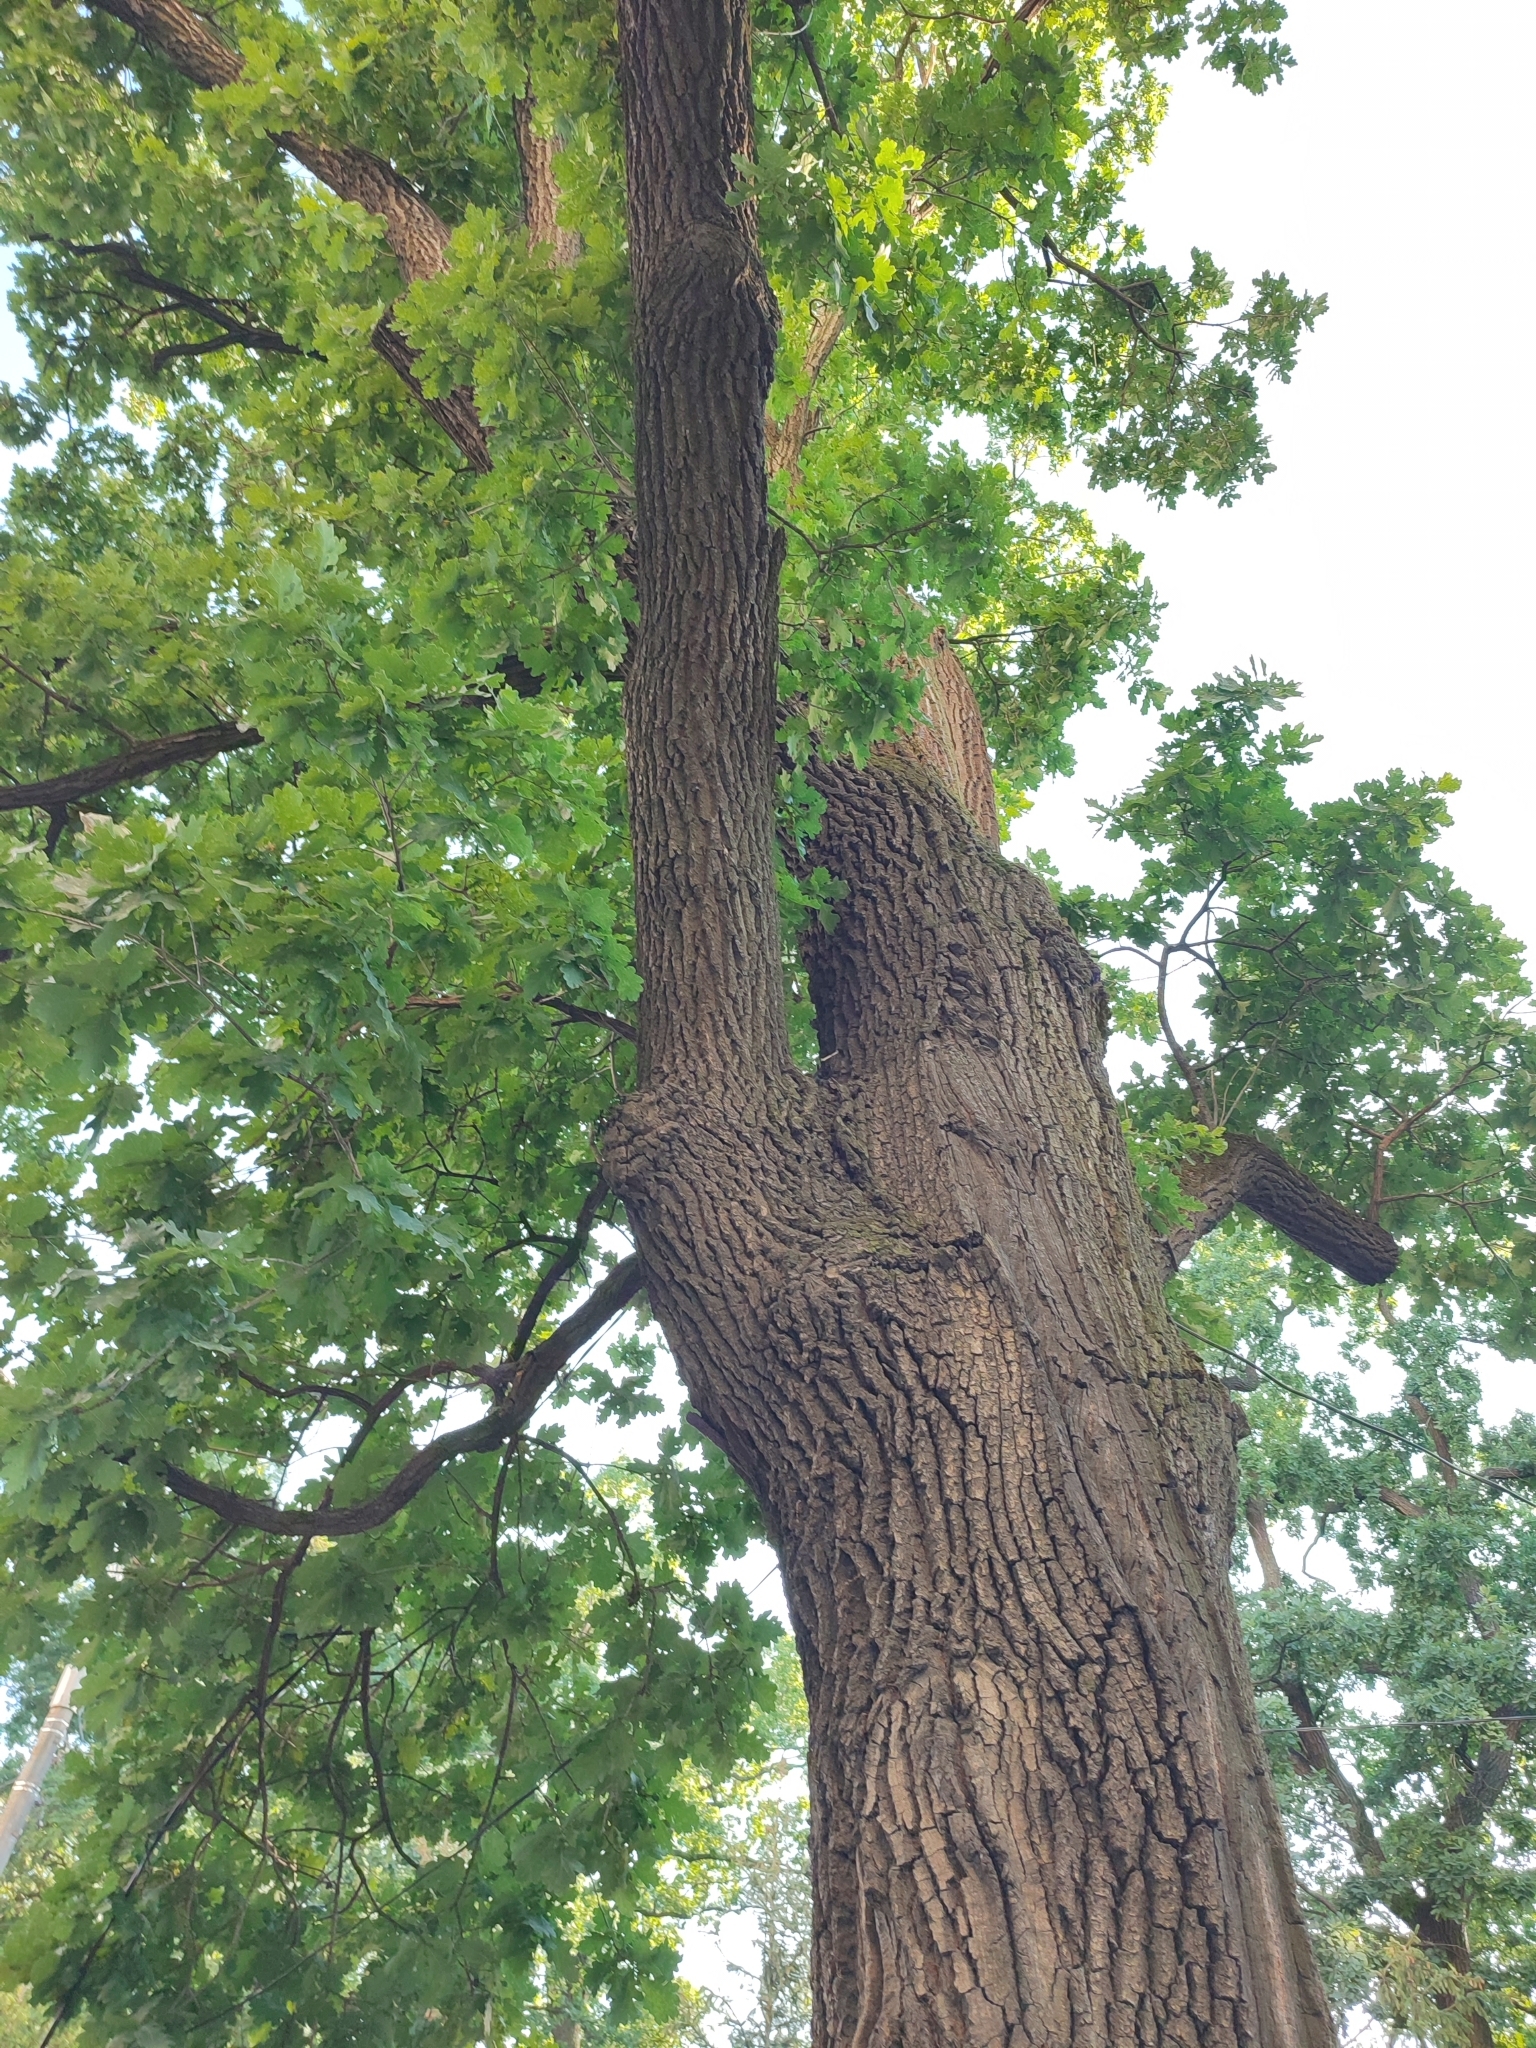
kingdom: Plantae
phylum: Tracheophyta
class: Magnoliopsida
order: Fagales
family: Fagaceae
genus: Quercus
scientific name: Quercus robur
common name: Pedunculate oak
